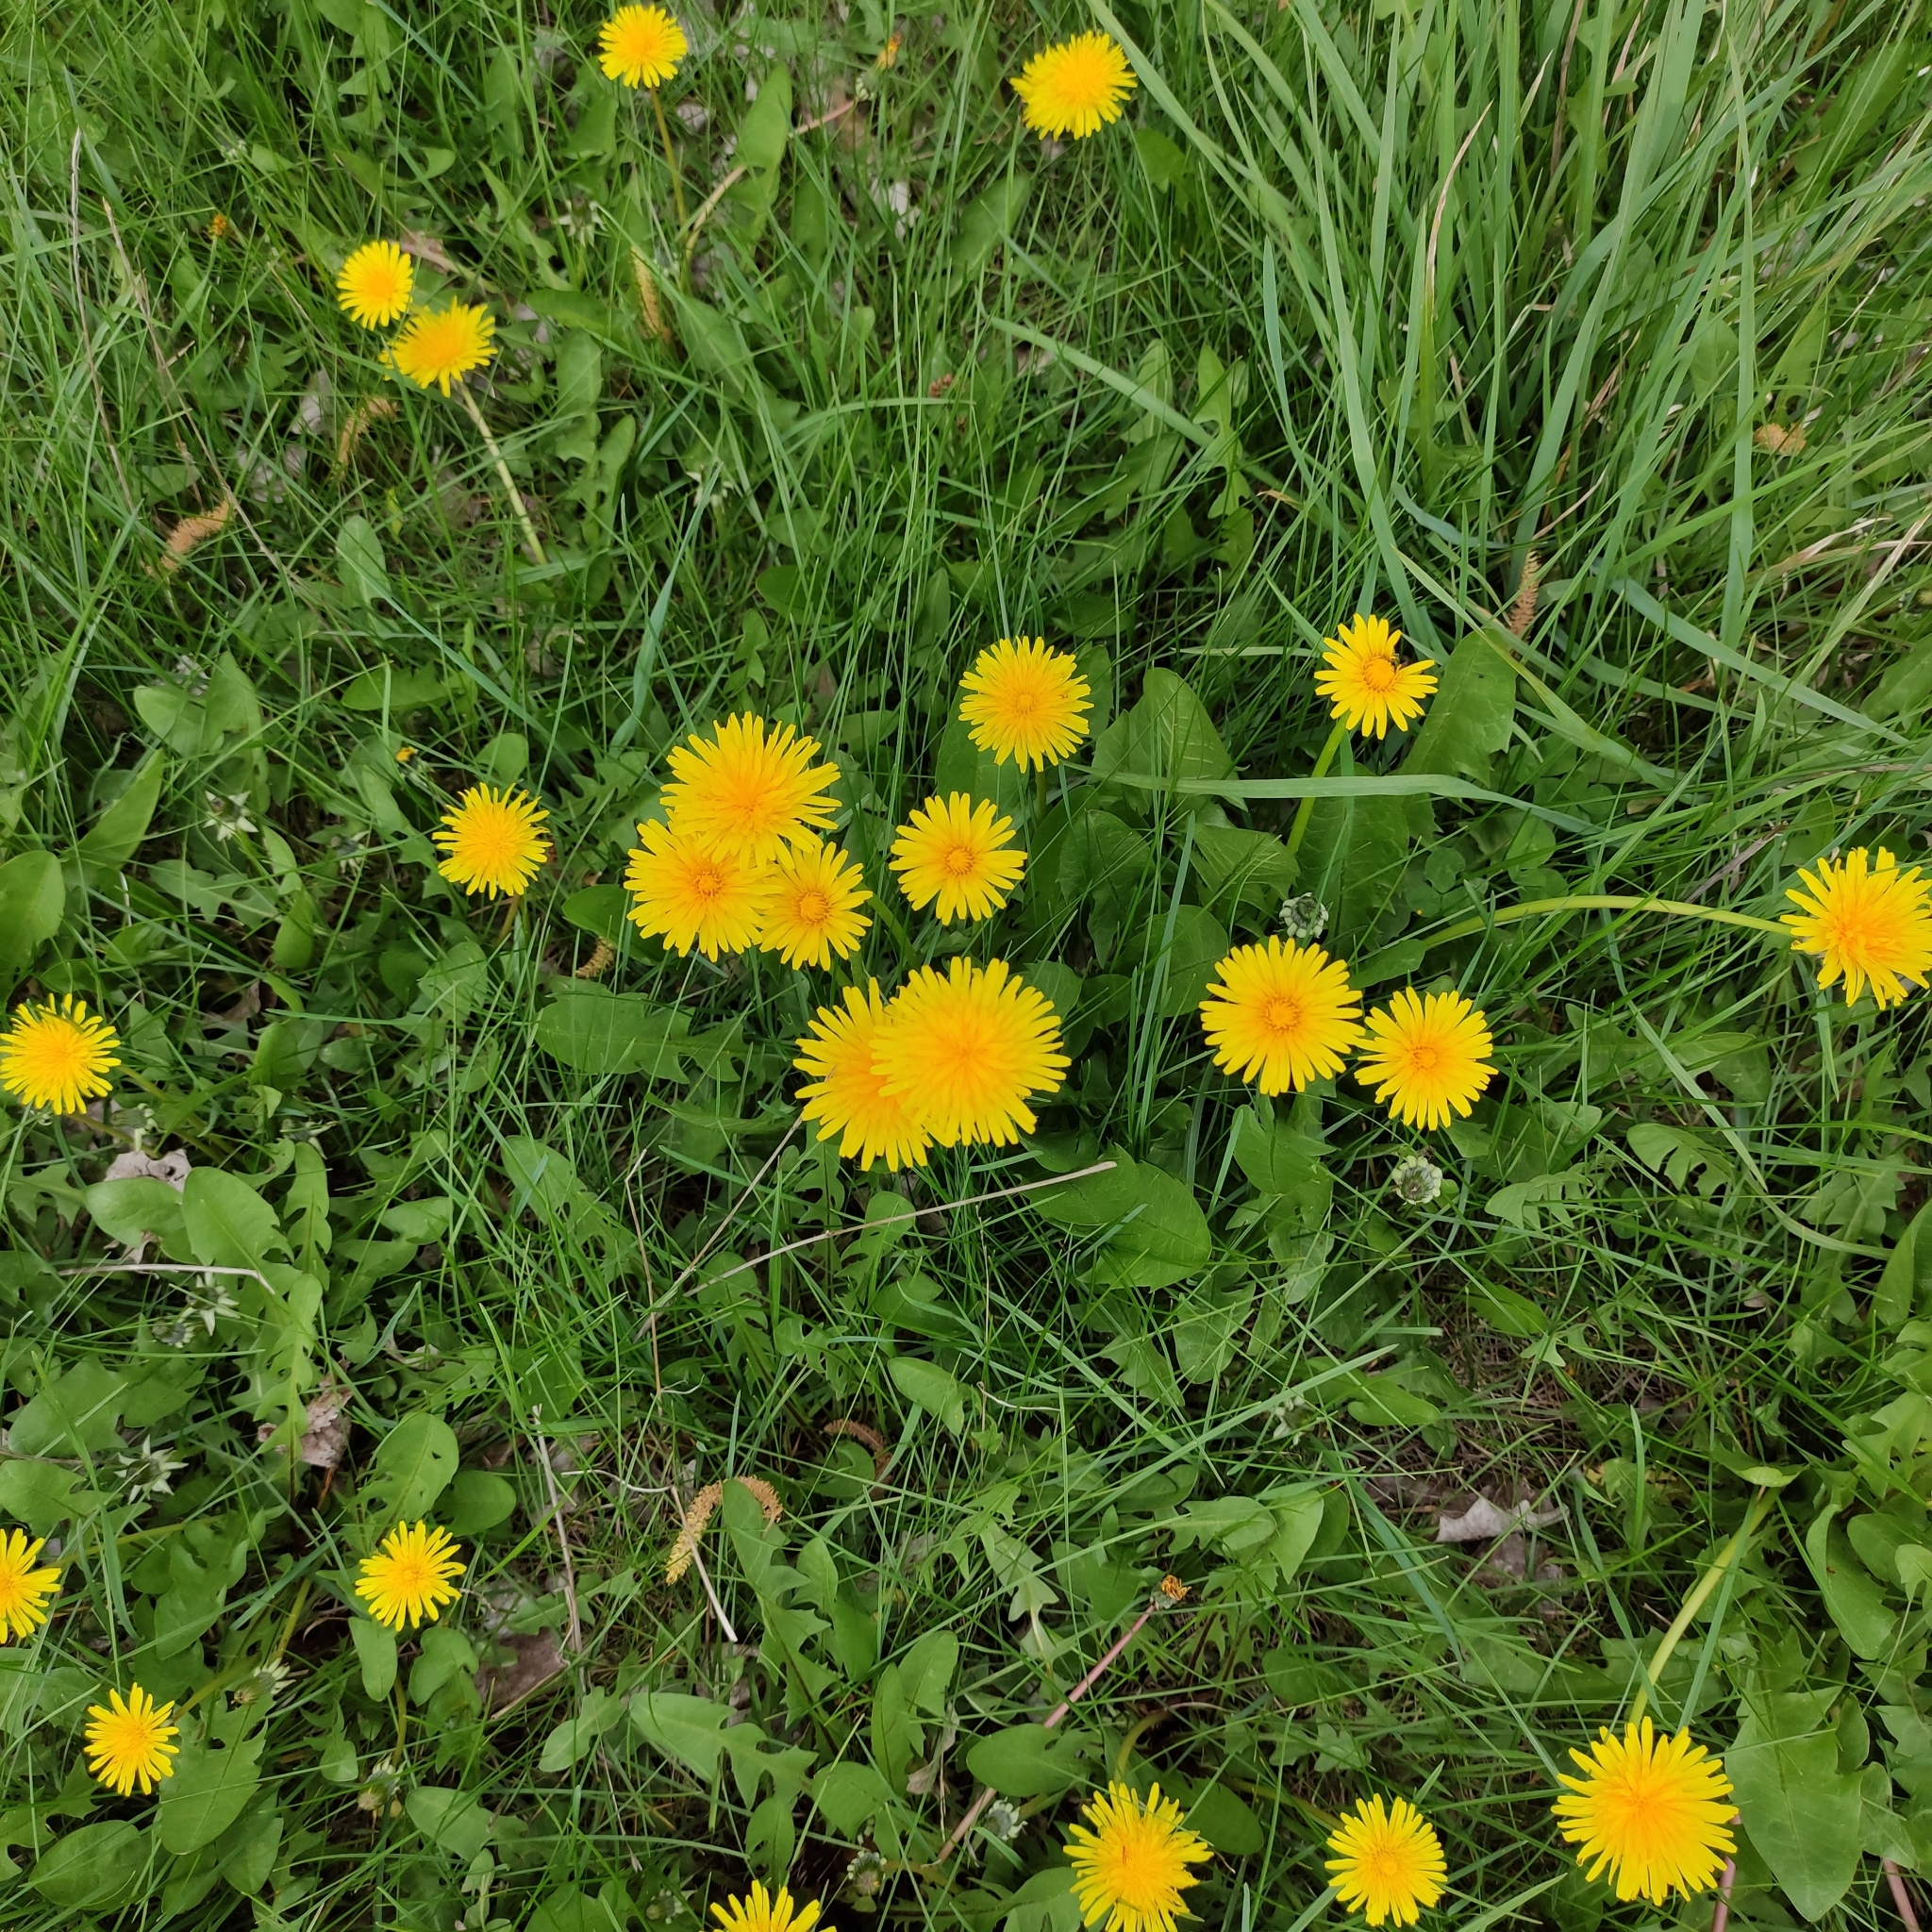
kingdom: Plantae
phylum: Tracheophyta
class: Magnoliopsida
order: Asterales
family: Asteraceae
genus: Taraxacum
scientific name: Taraxacum officinale
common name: Common dandelion
